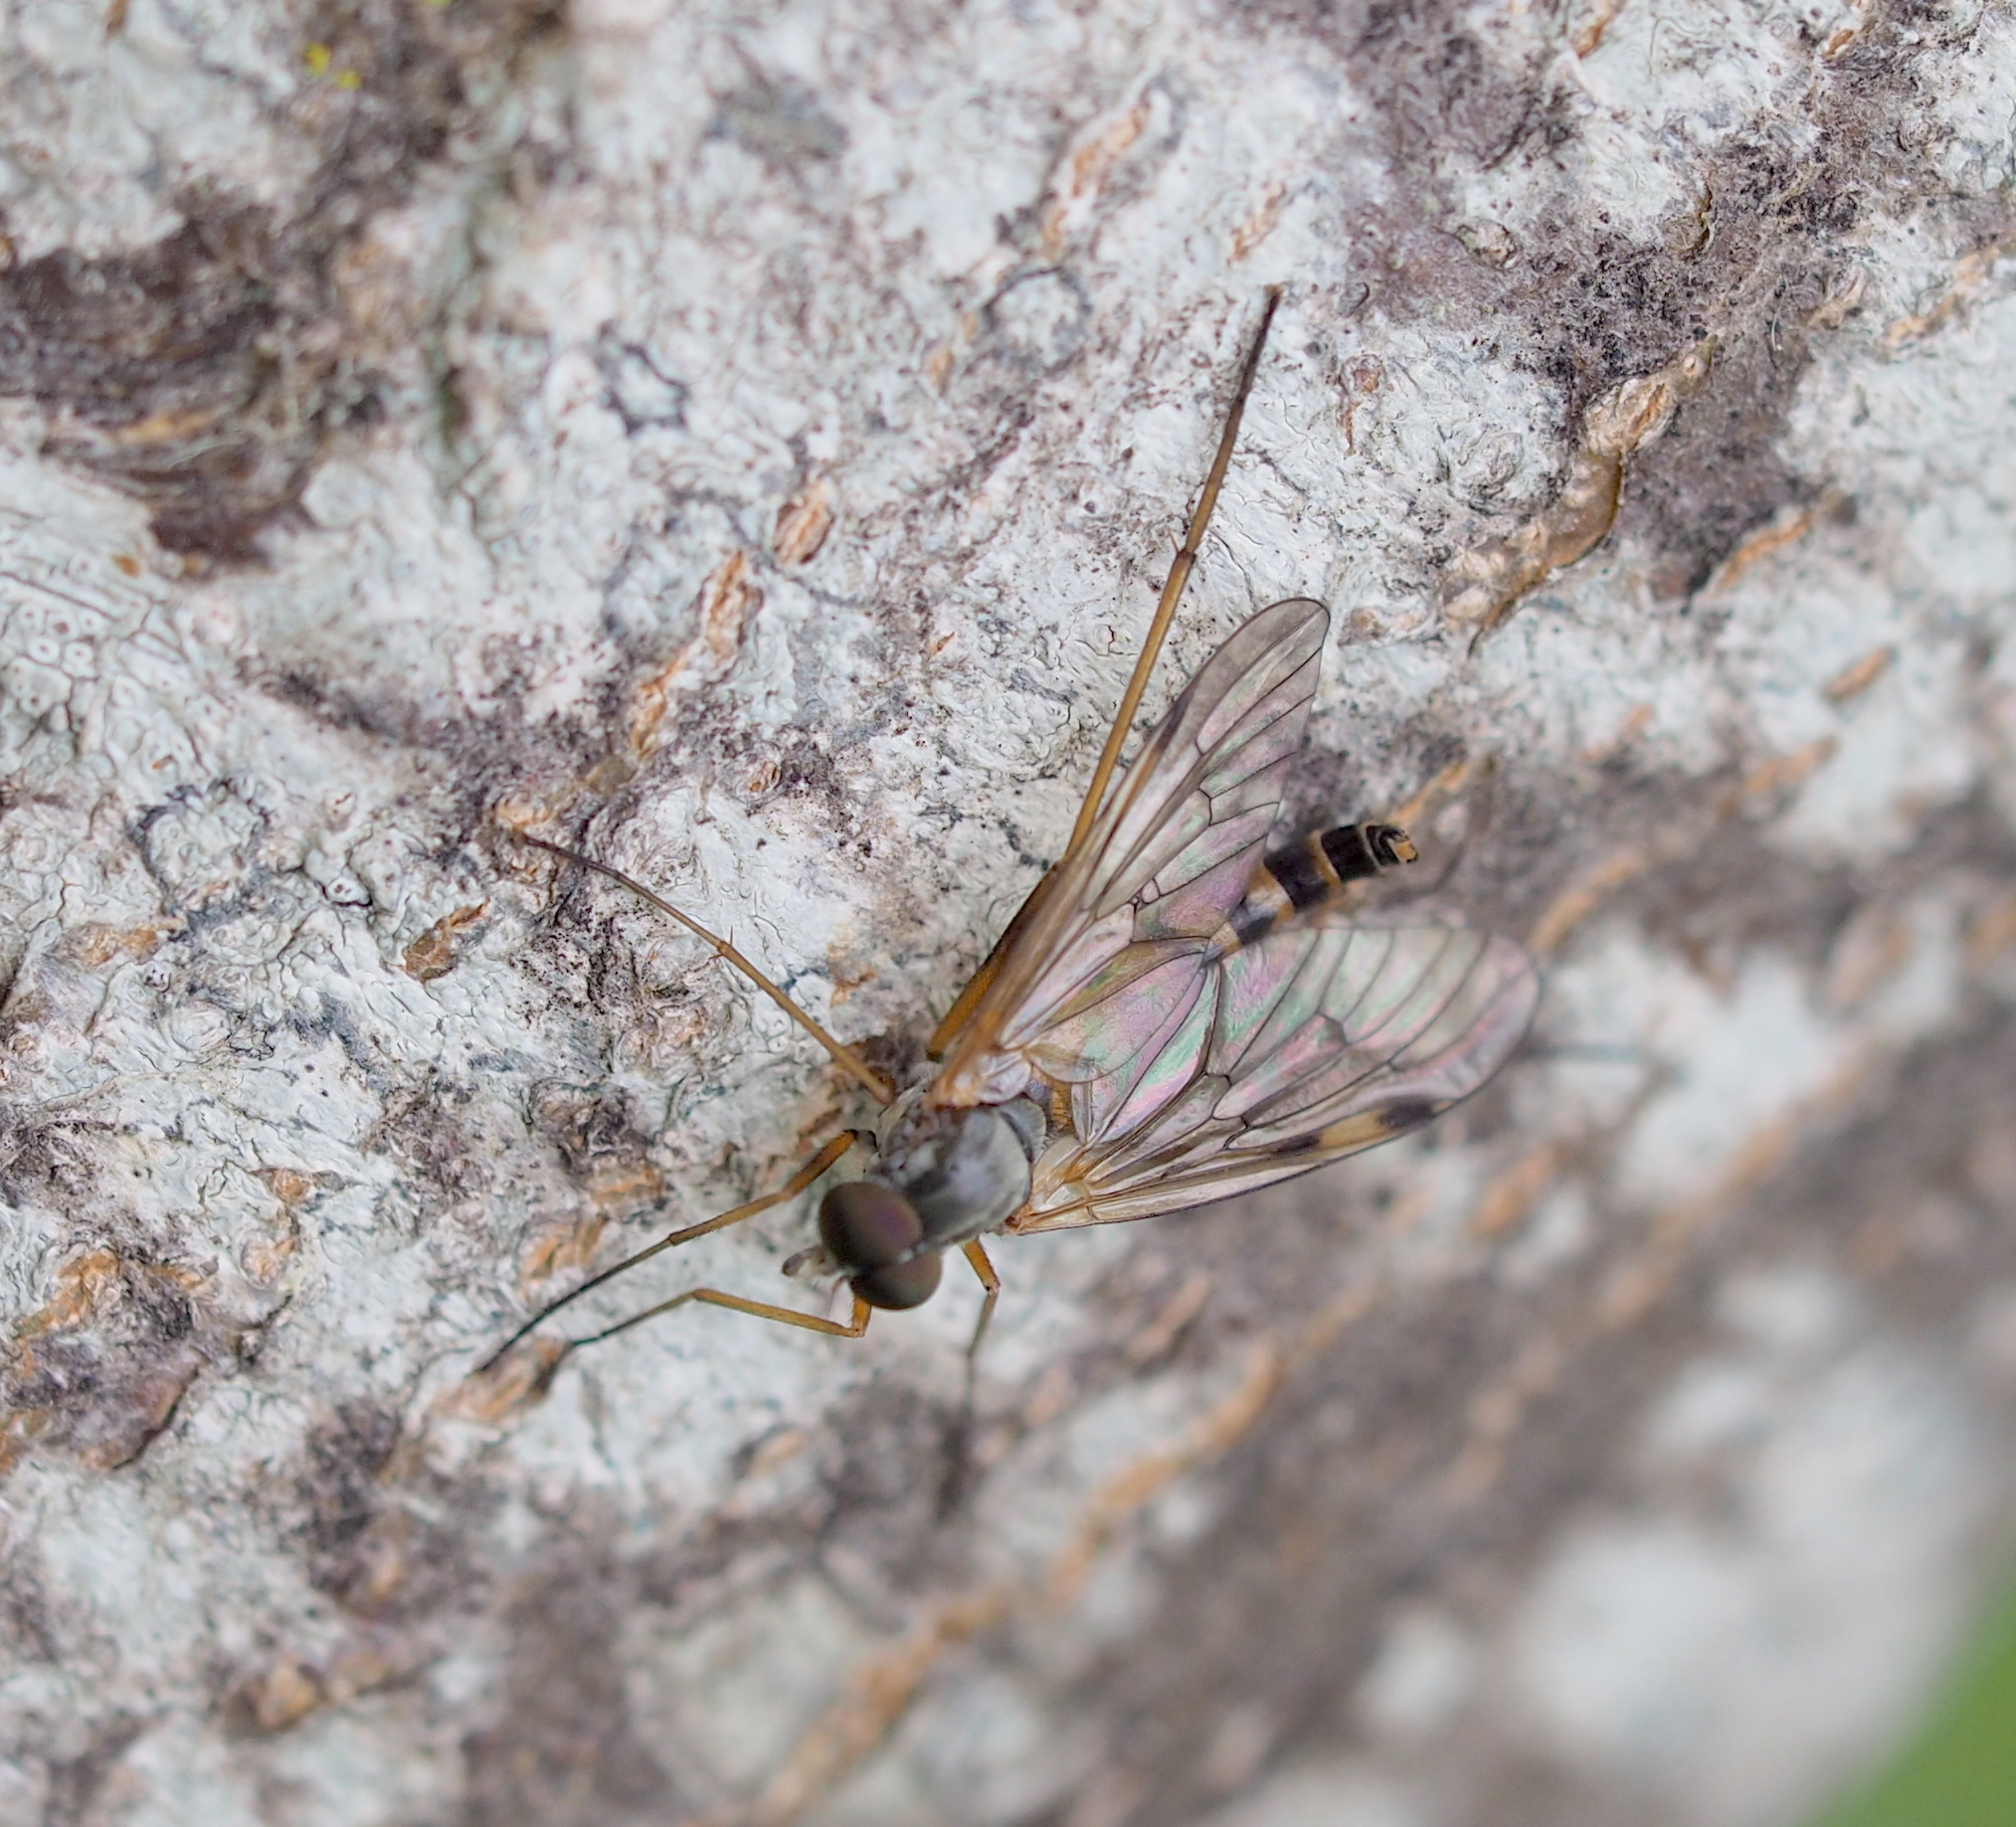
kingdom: Animalia
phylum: Arthropoda
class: Insecta
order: Diptera
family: Rhagionidae
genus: Rhagio
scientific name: Rhagio maculatus
